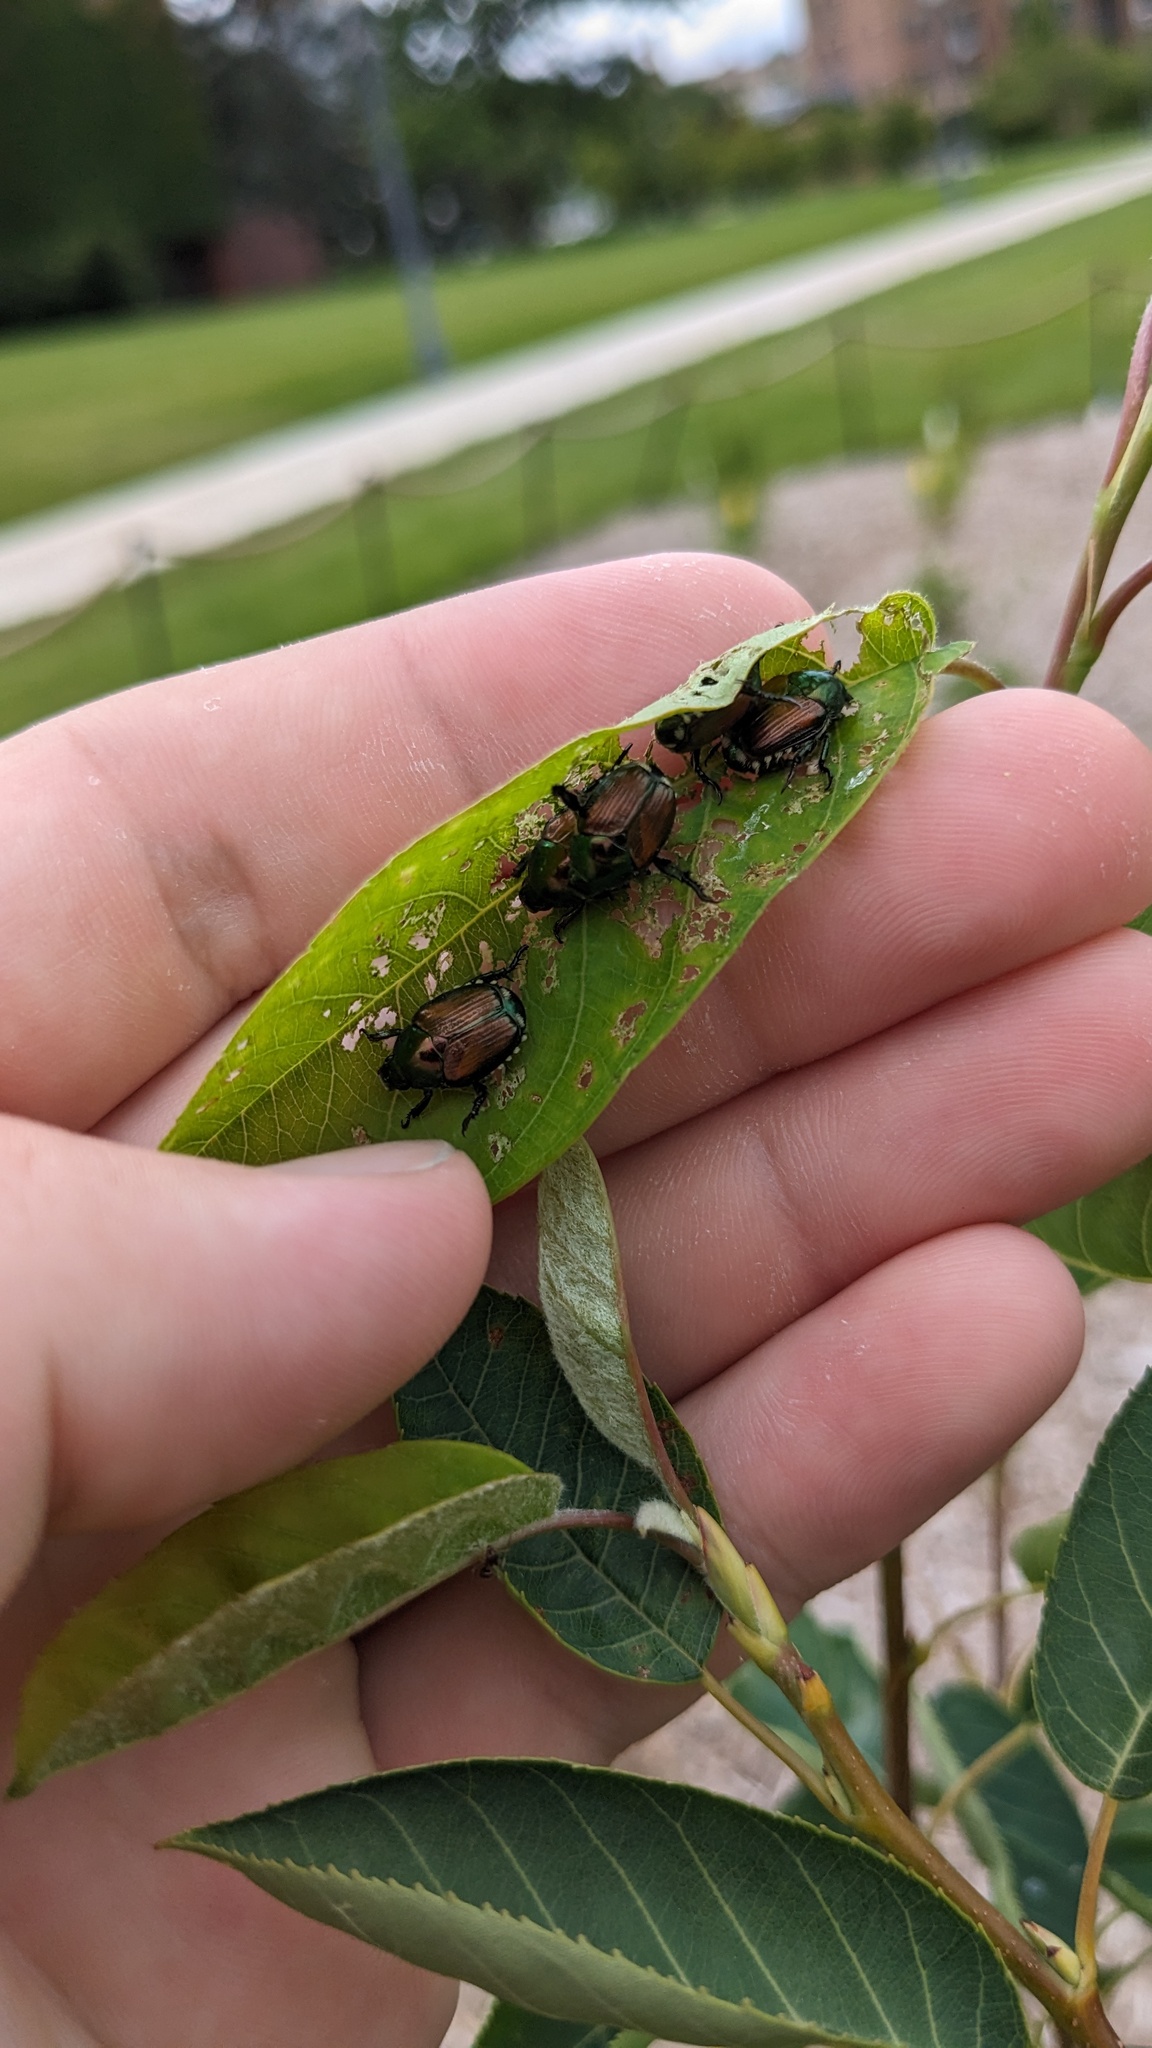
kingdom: Animalia
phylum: Arthropoda
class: Insecta
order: Coleoptera
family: Scarabaeidae
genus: Popillia
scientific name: Popillia japonica
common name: Japanese beetle
